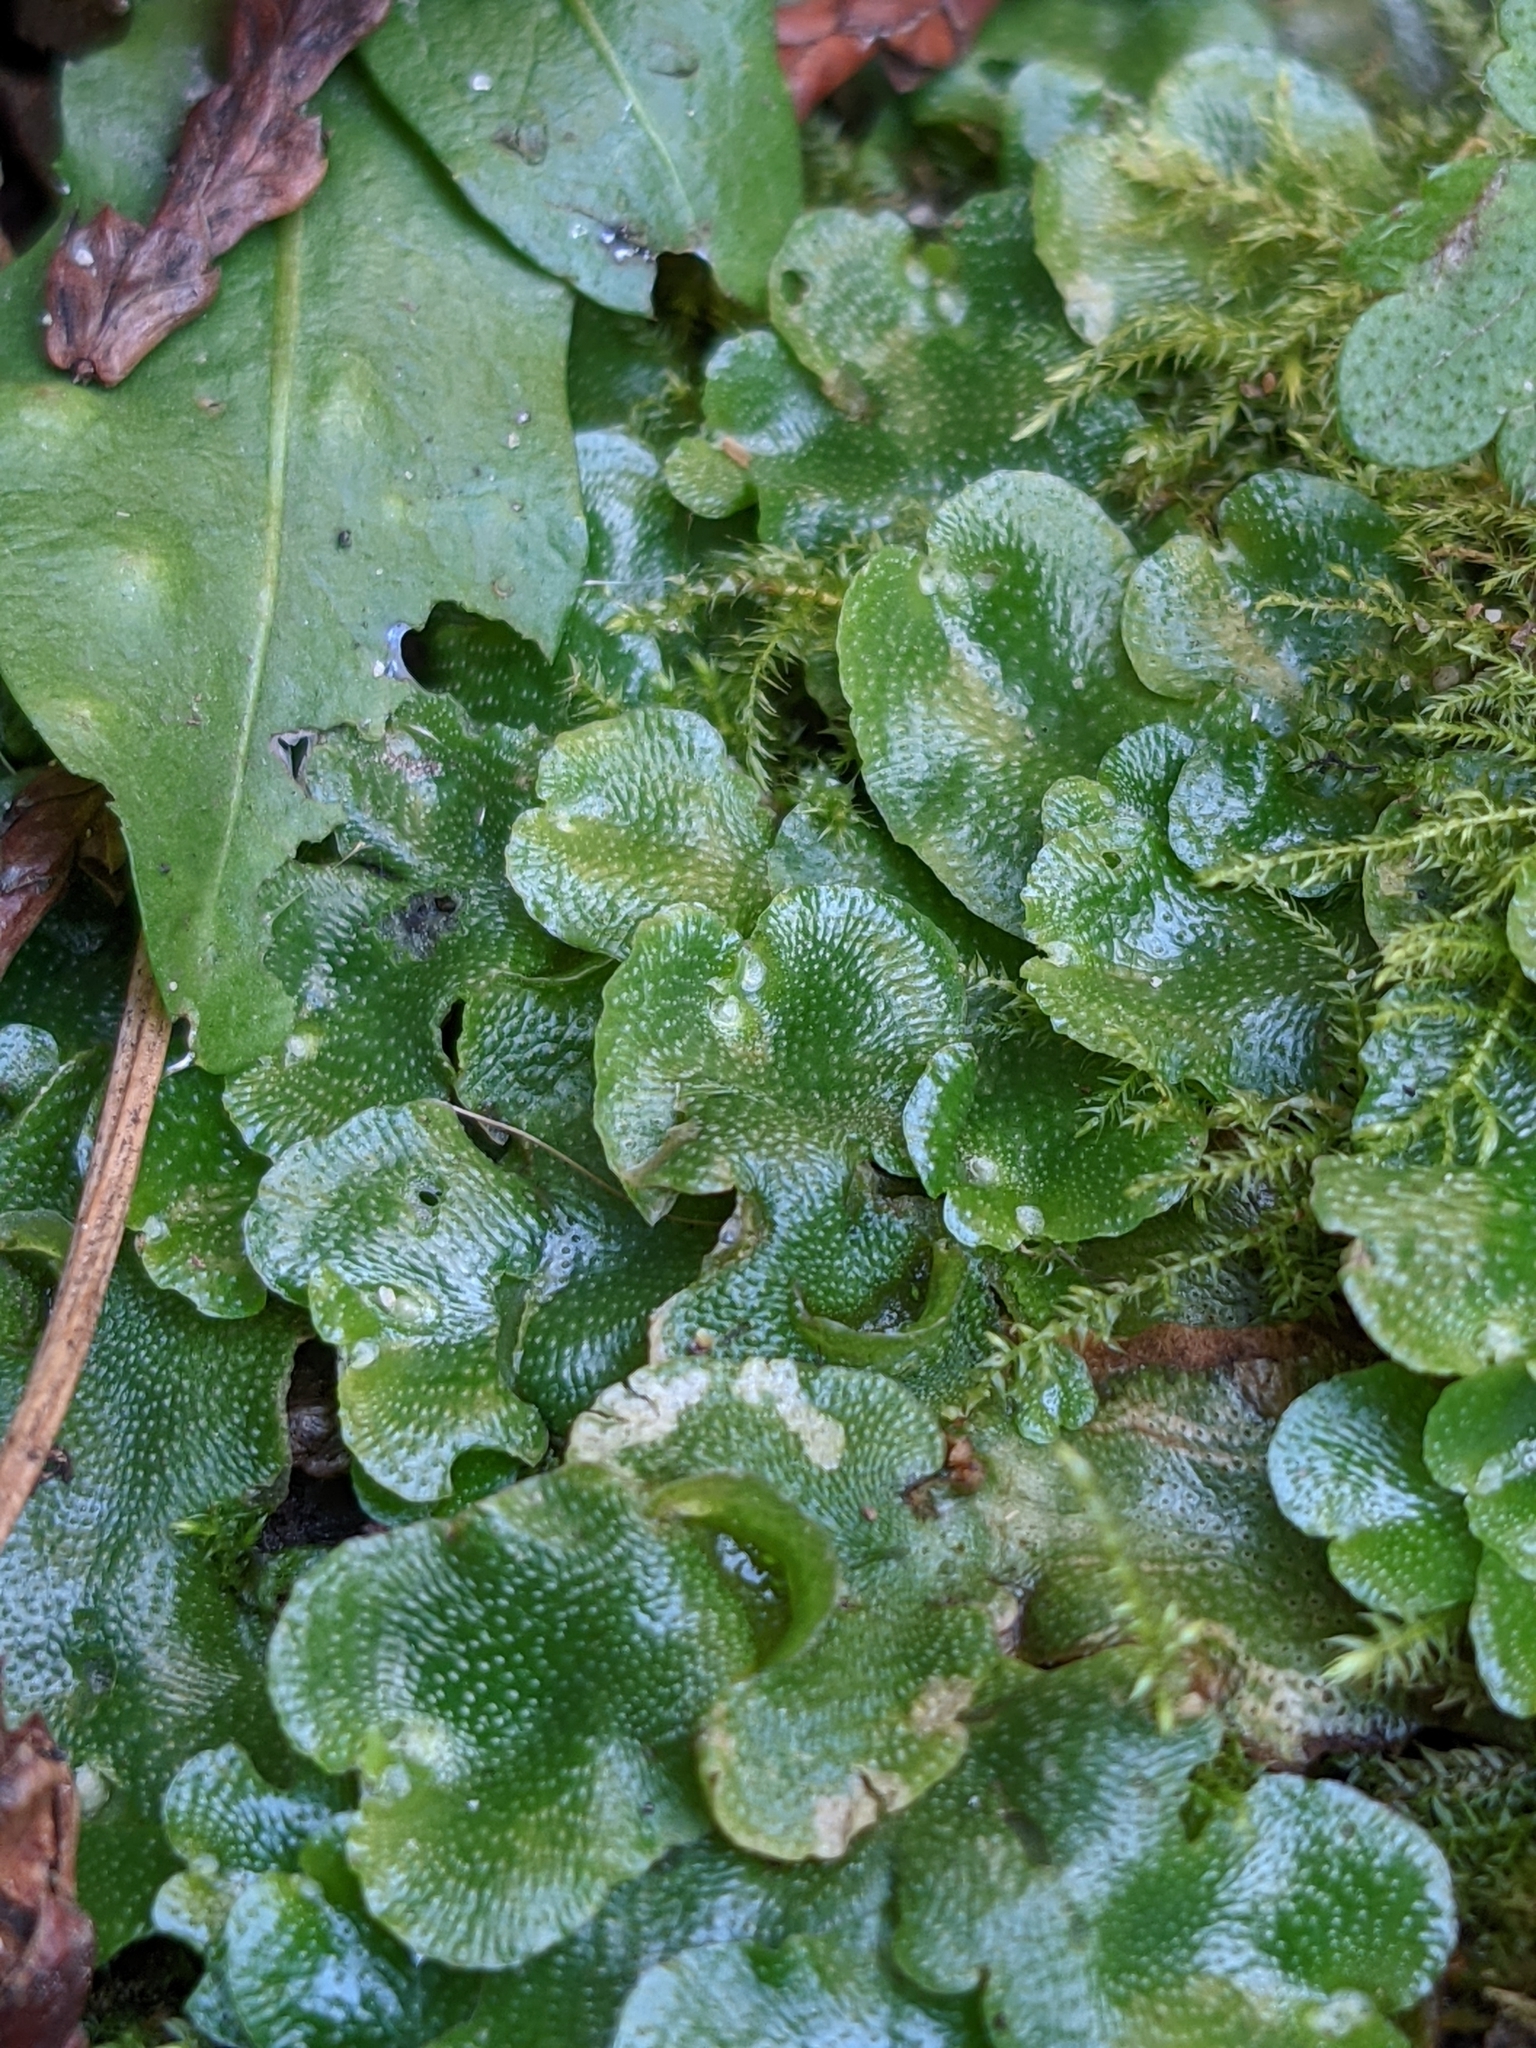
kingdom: Plantae
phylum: Marchantiophyta
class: Marchantiopsida
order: Lunulariales
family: Lunulariaceae
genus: Lunularia
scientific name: Lunularia cruciata
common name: Crescent-cup liverwort
